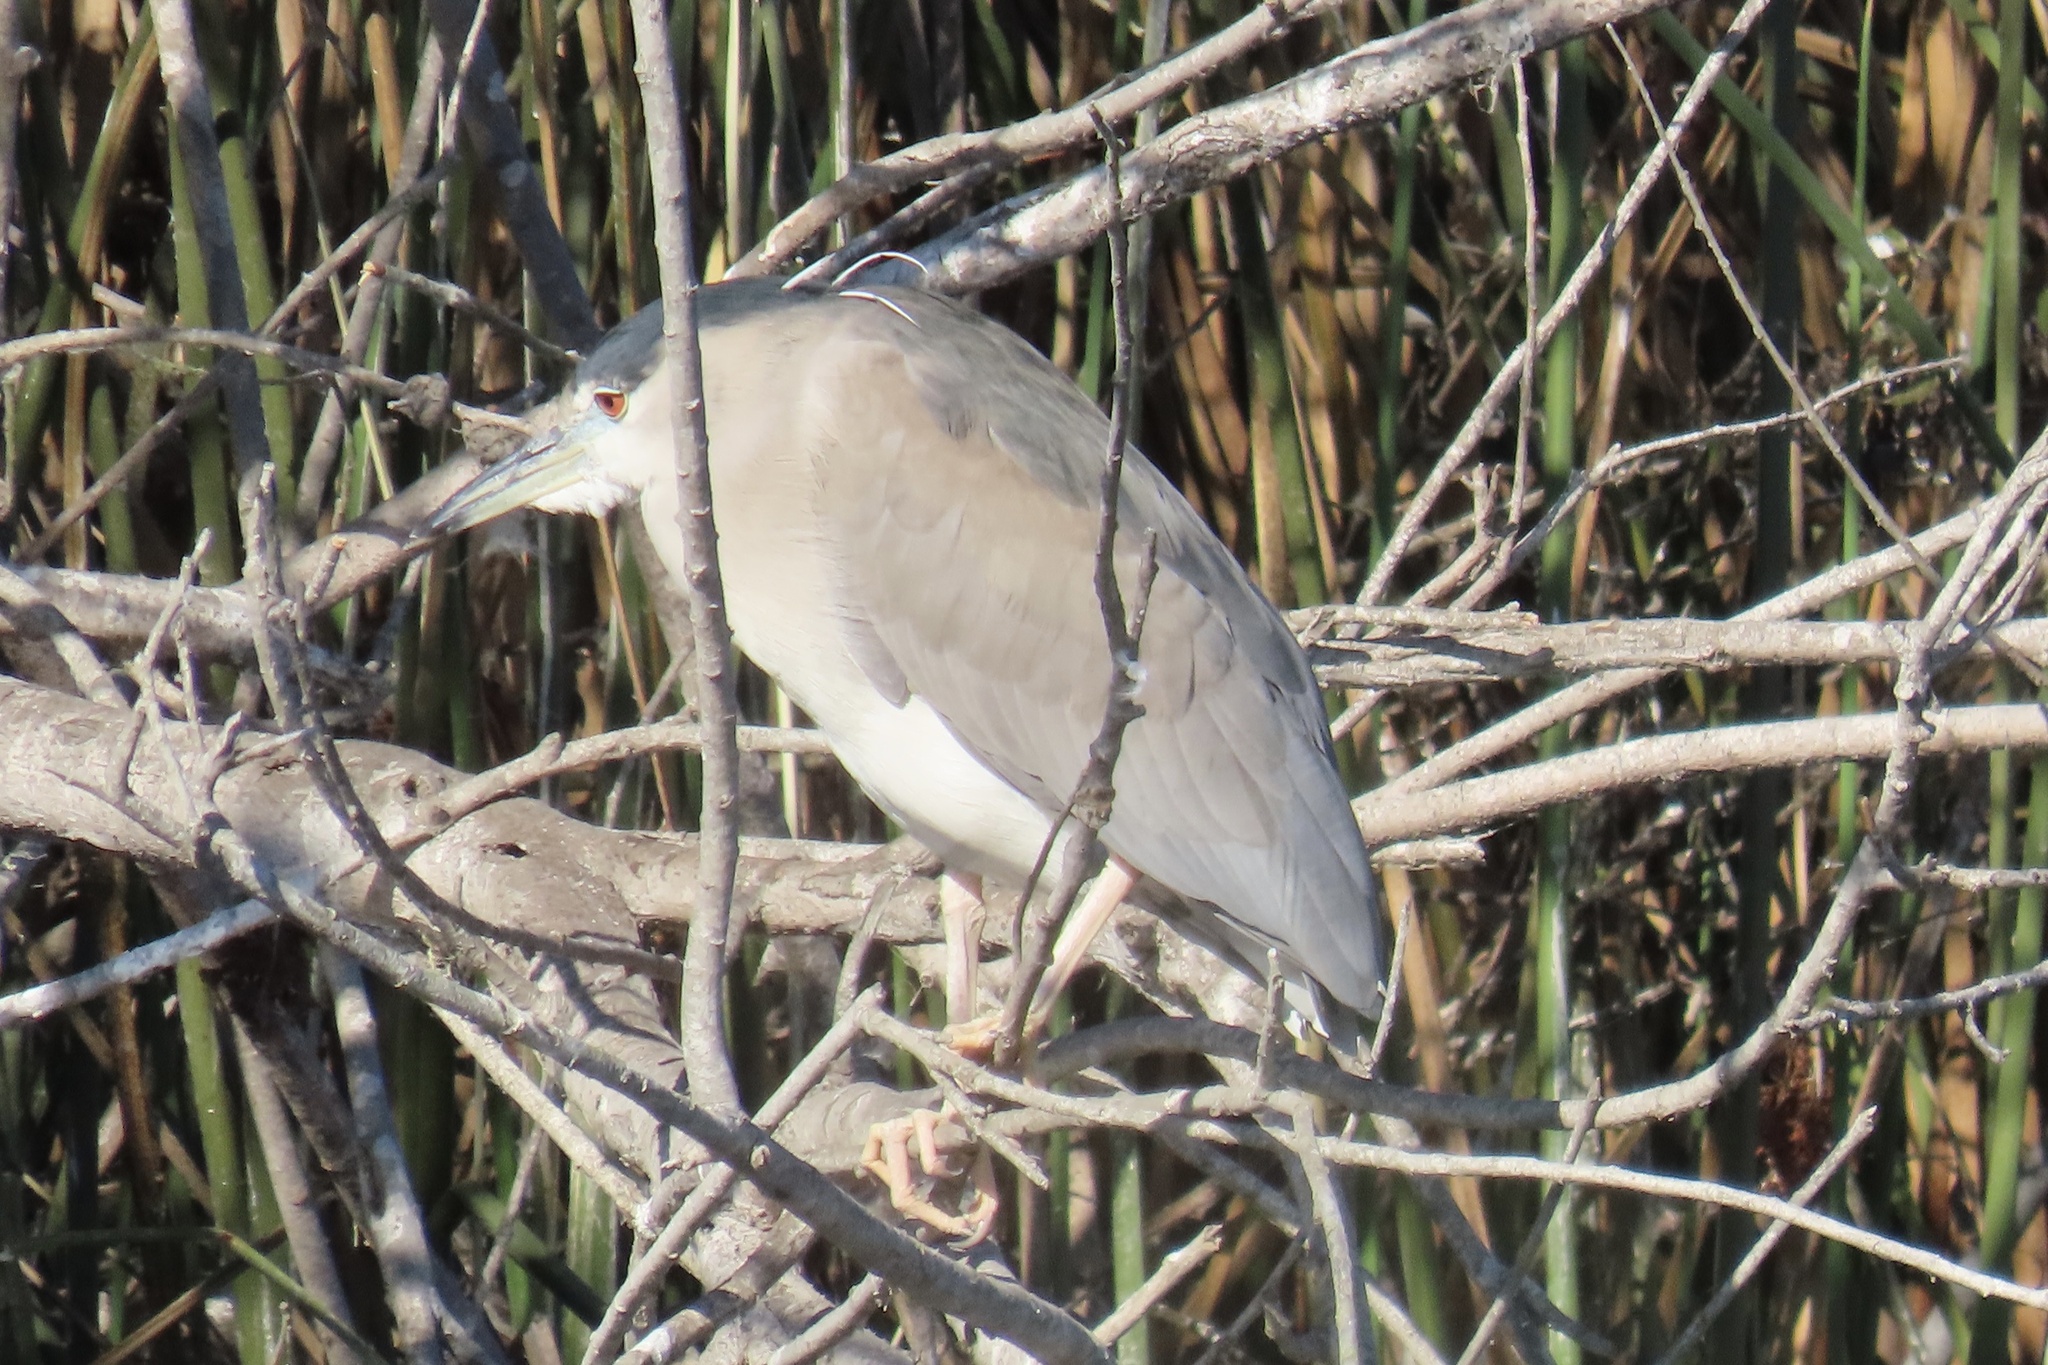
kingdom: Animalia
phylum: Chordata
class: Aves
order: Pelecaniformes
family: Ardeidae
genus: Nycticorax
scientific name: Nycticorax nycticorax
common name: Black-crowned night heron
